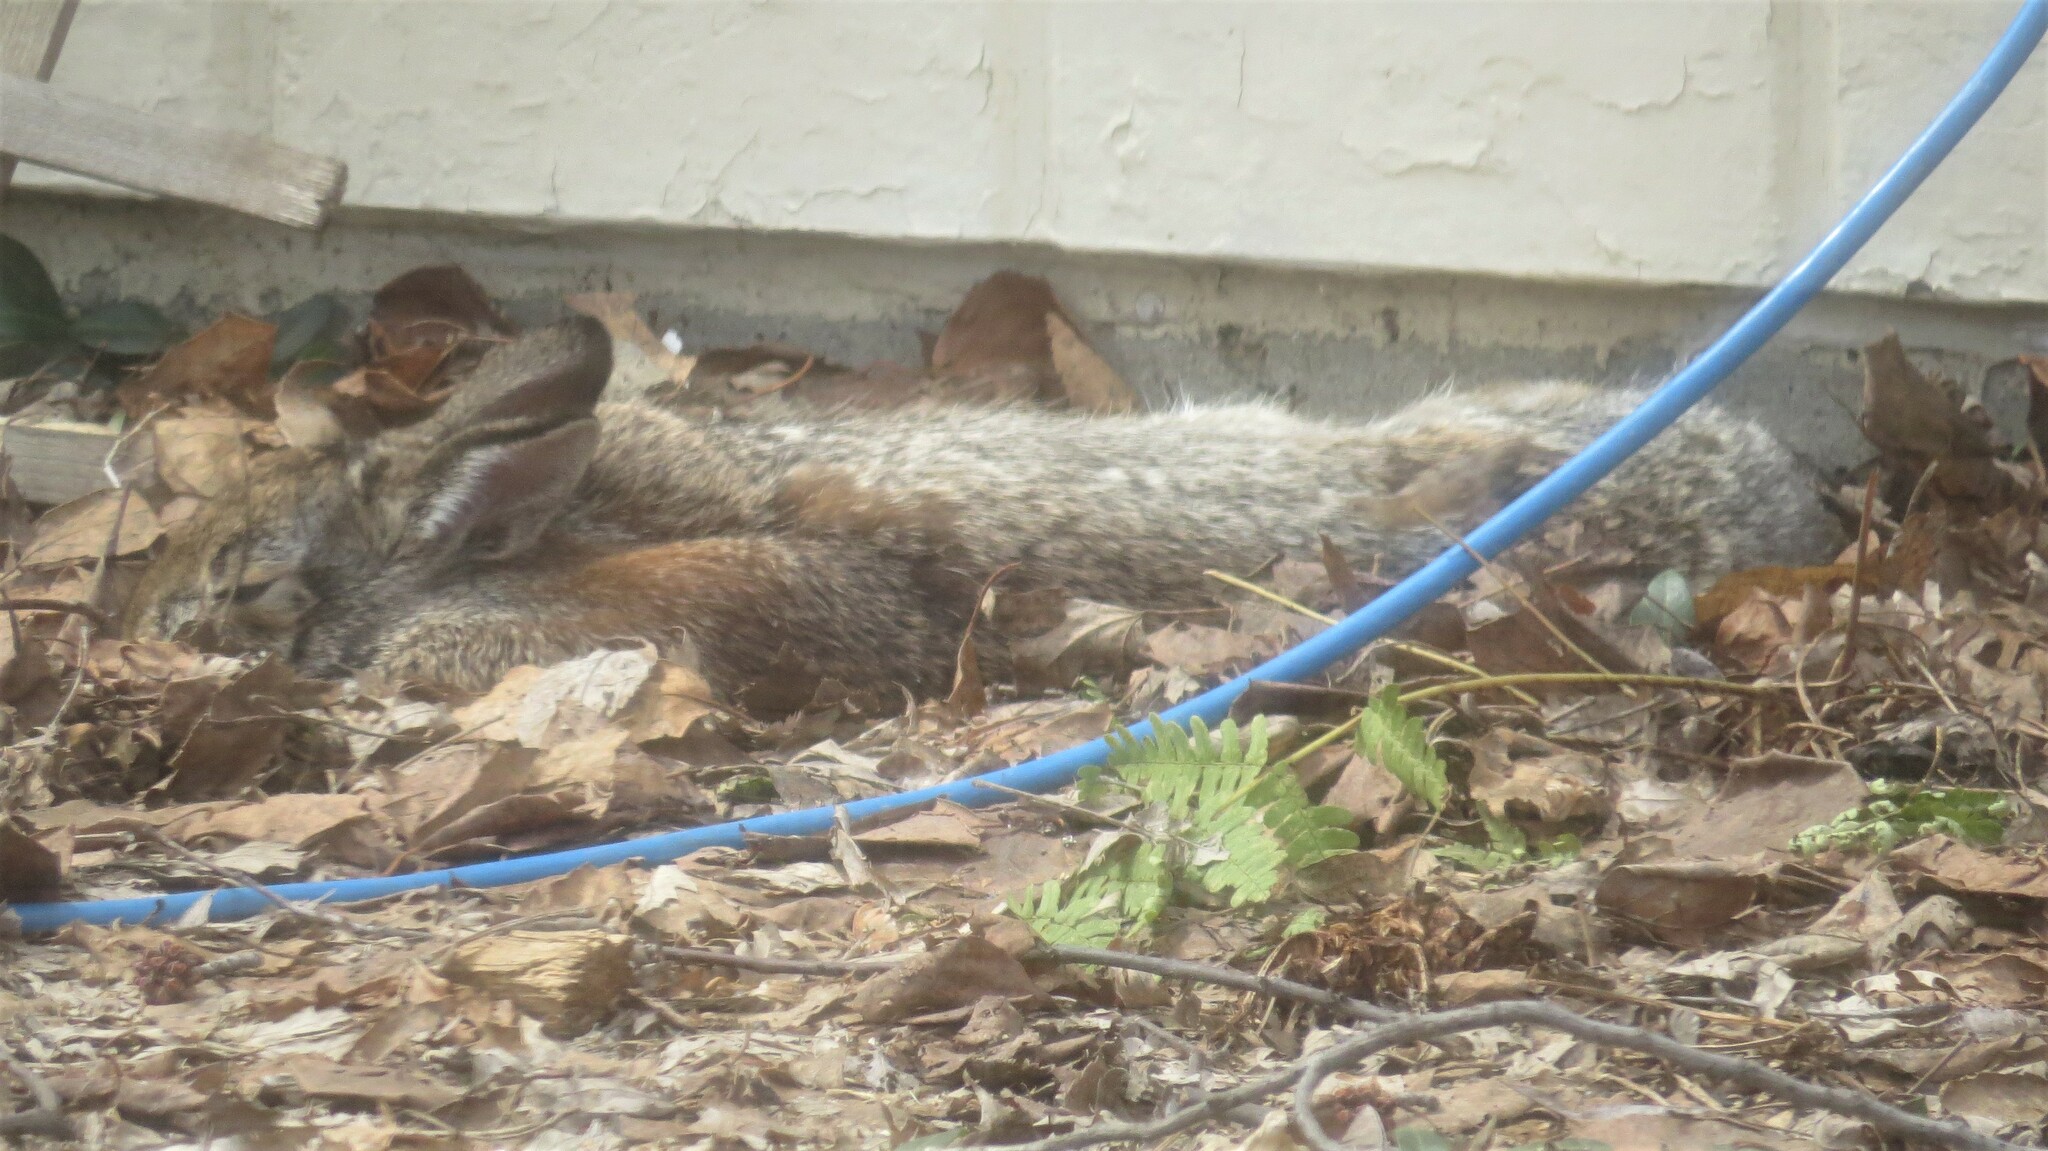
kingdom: Animalia
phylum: Chordata
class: Mammalia
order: Lagomorpha
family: Leporidae
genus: Sylvilagus
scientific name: Sylvilagus floridanus
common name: Eastern cottontail
